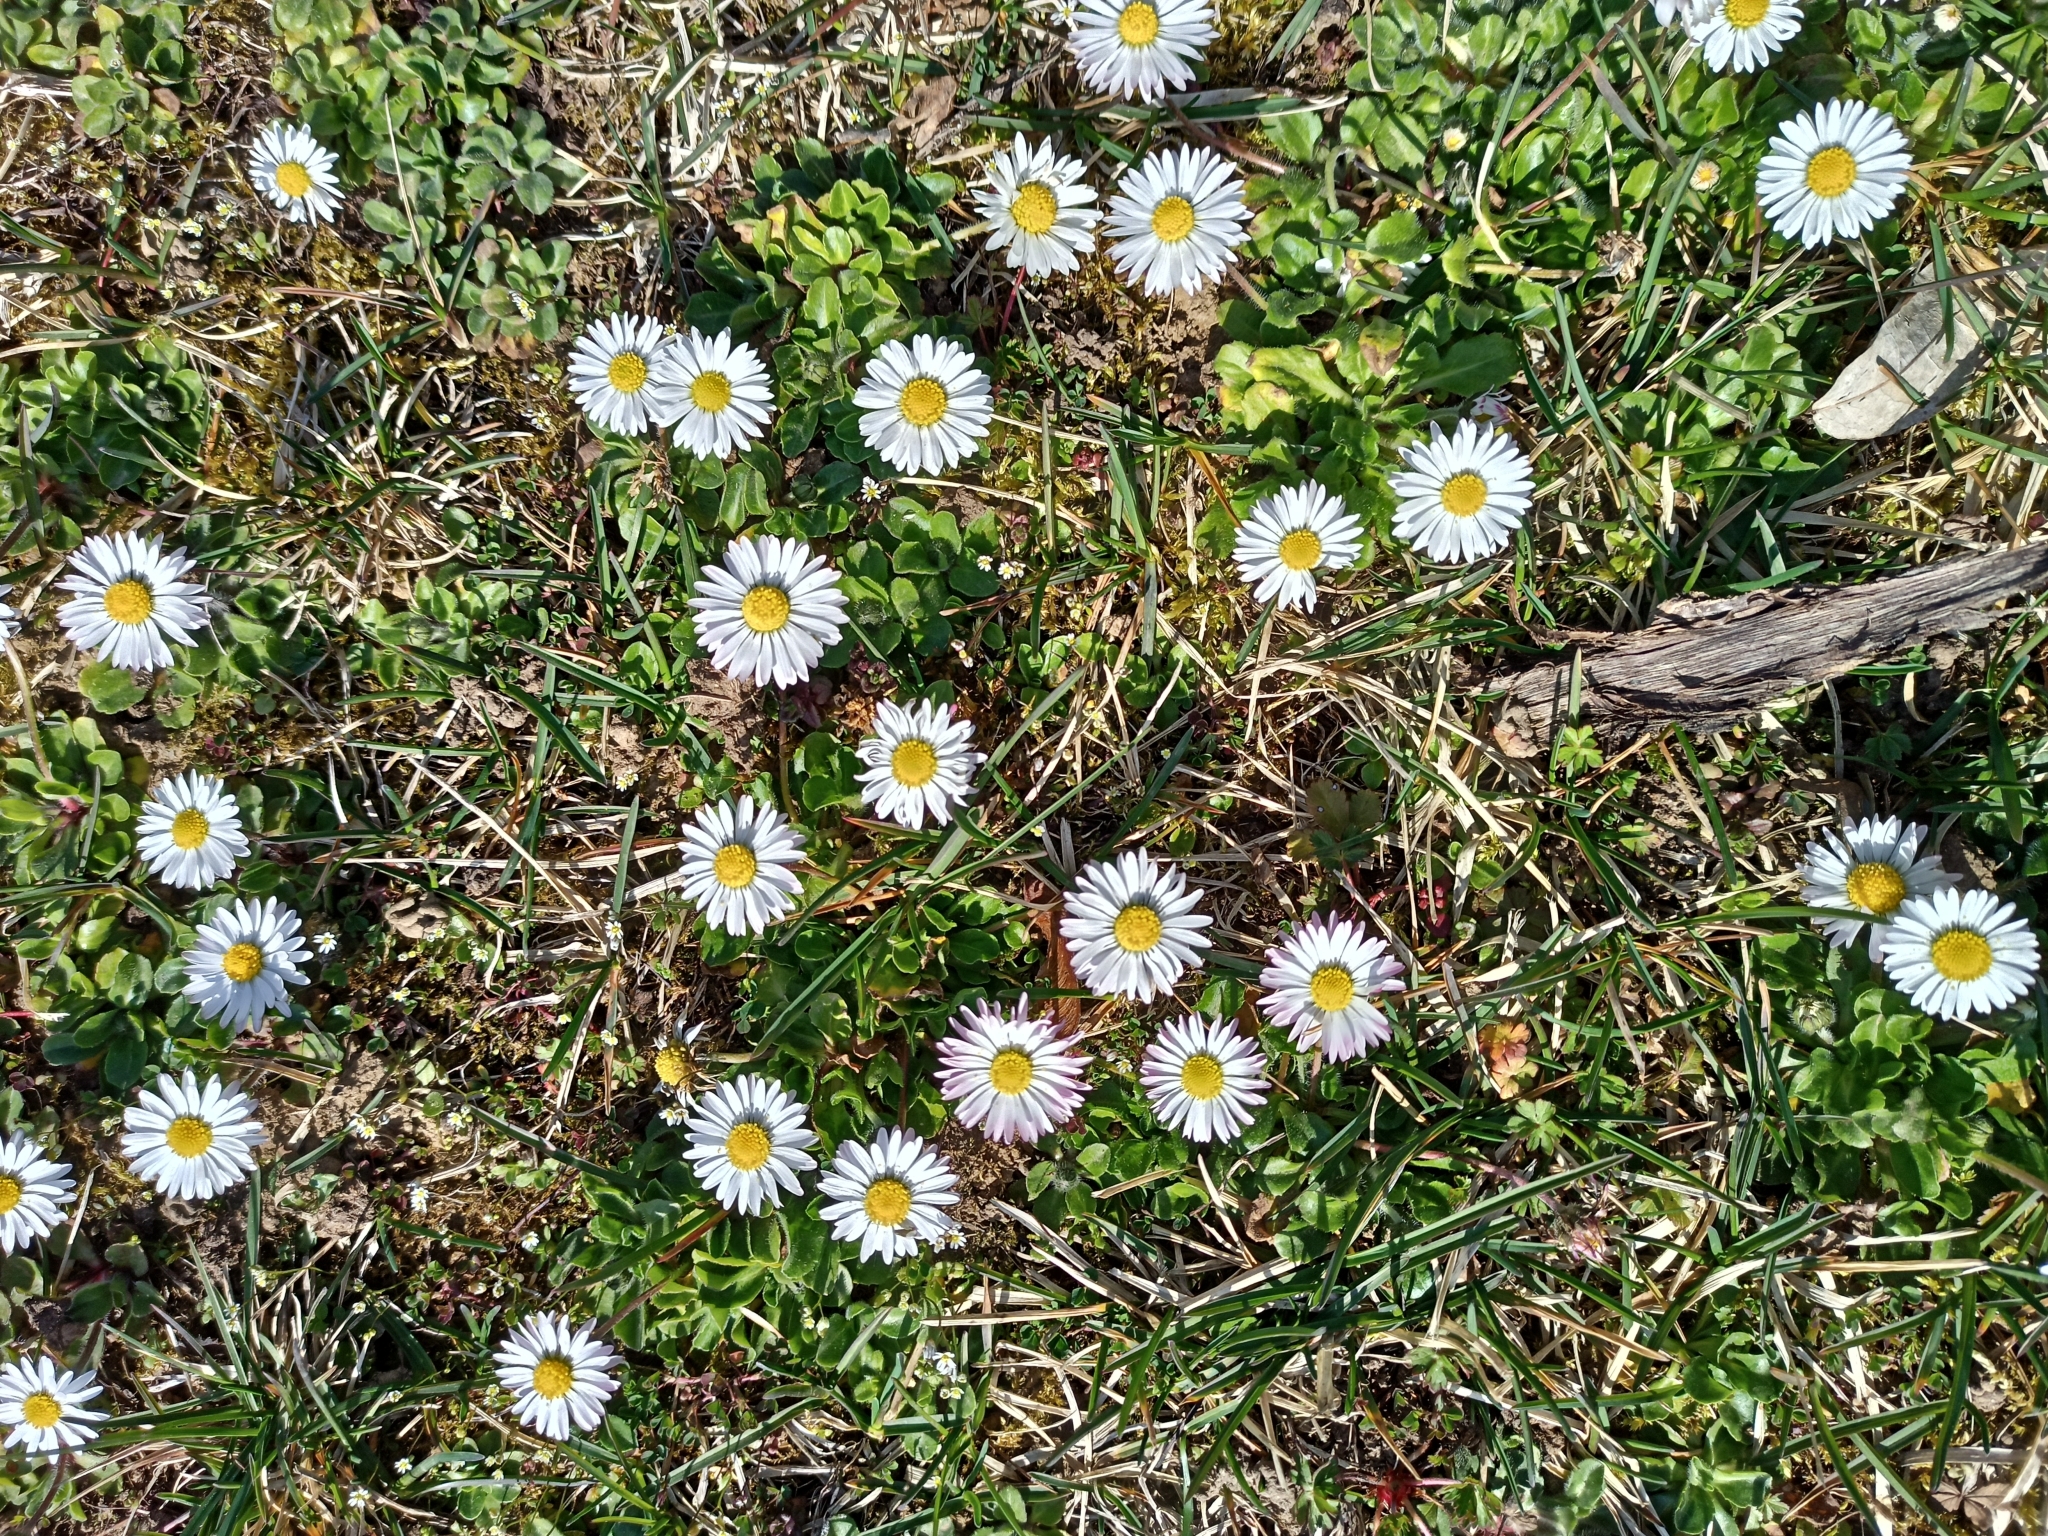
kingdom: Plantae
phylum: Tracheophyta
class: Magnoliopsida
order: Asterales
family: Asteraceae
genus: Bellis
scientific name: Bellis perennis
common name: Lawndaisy
